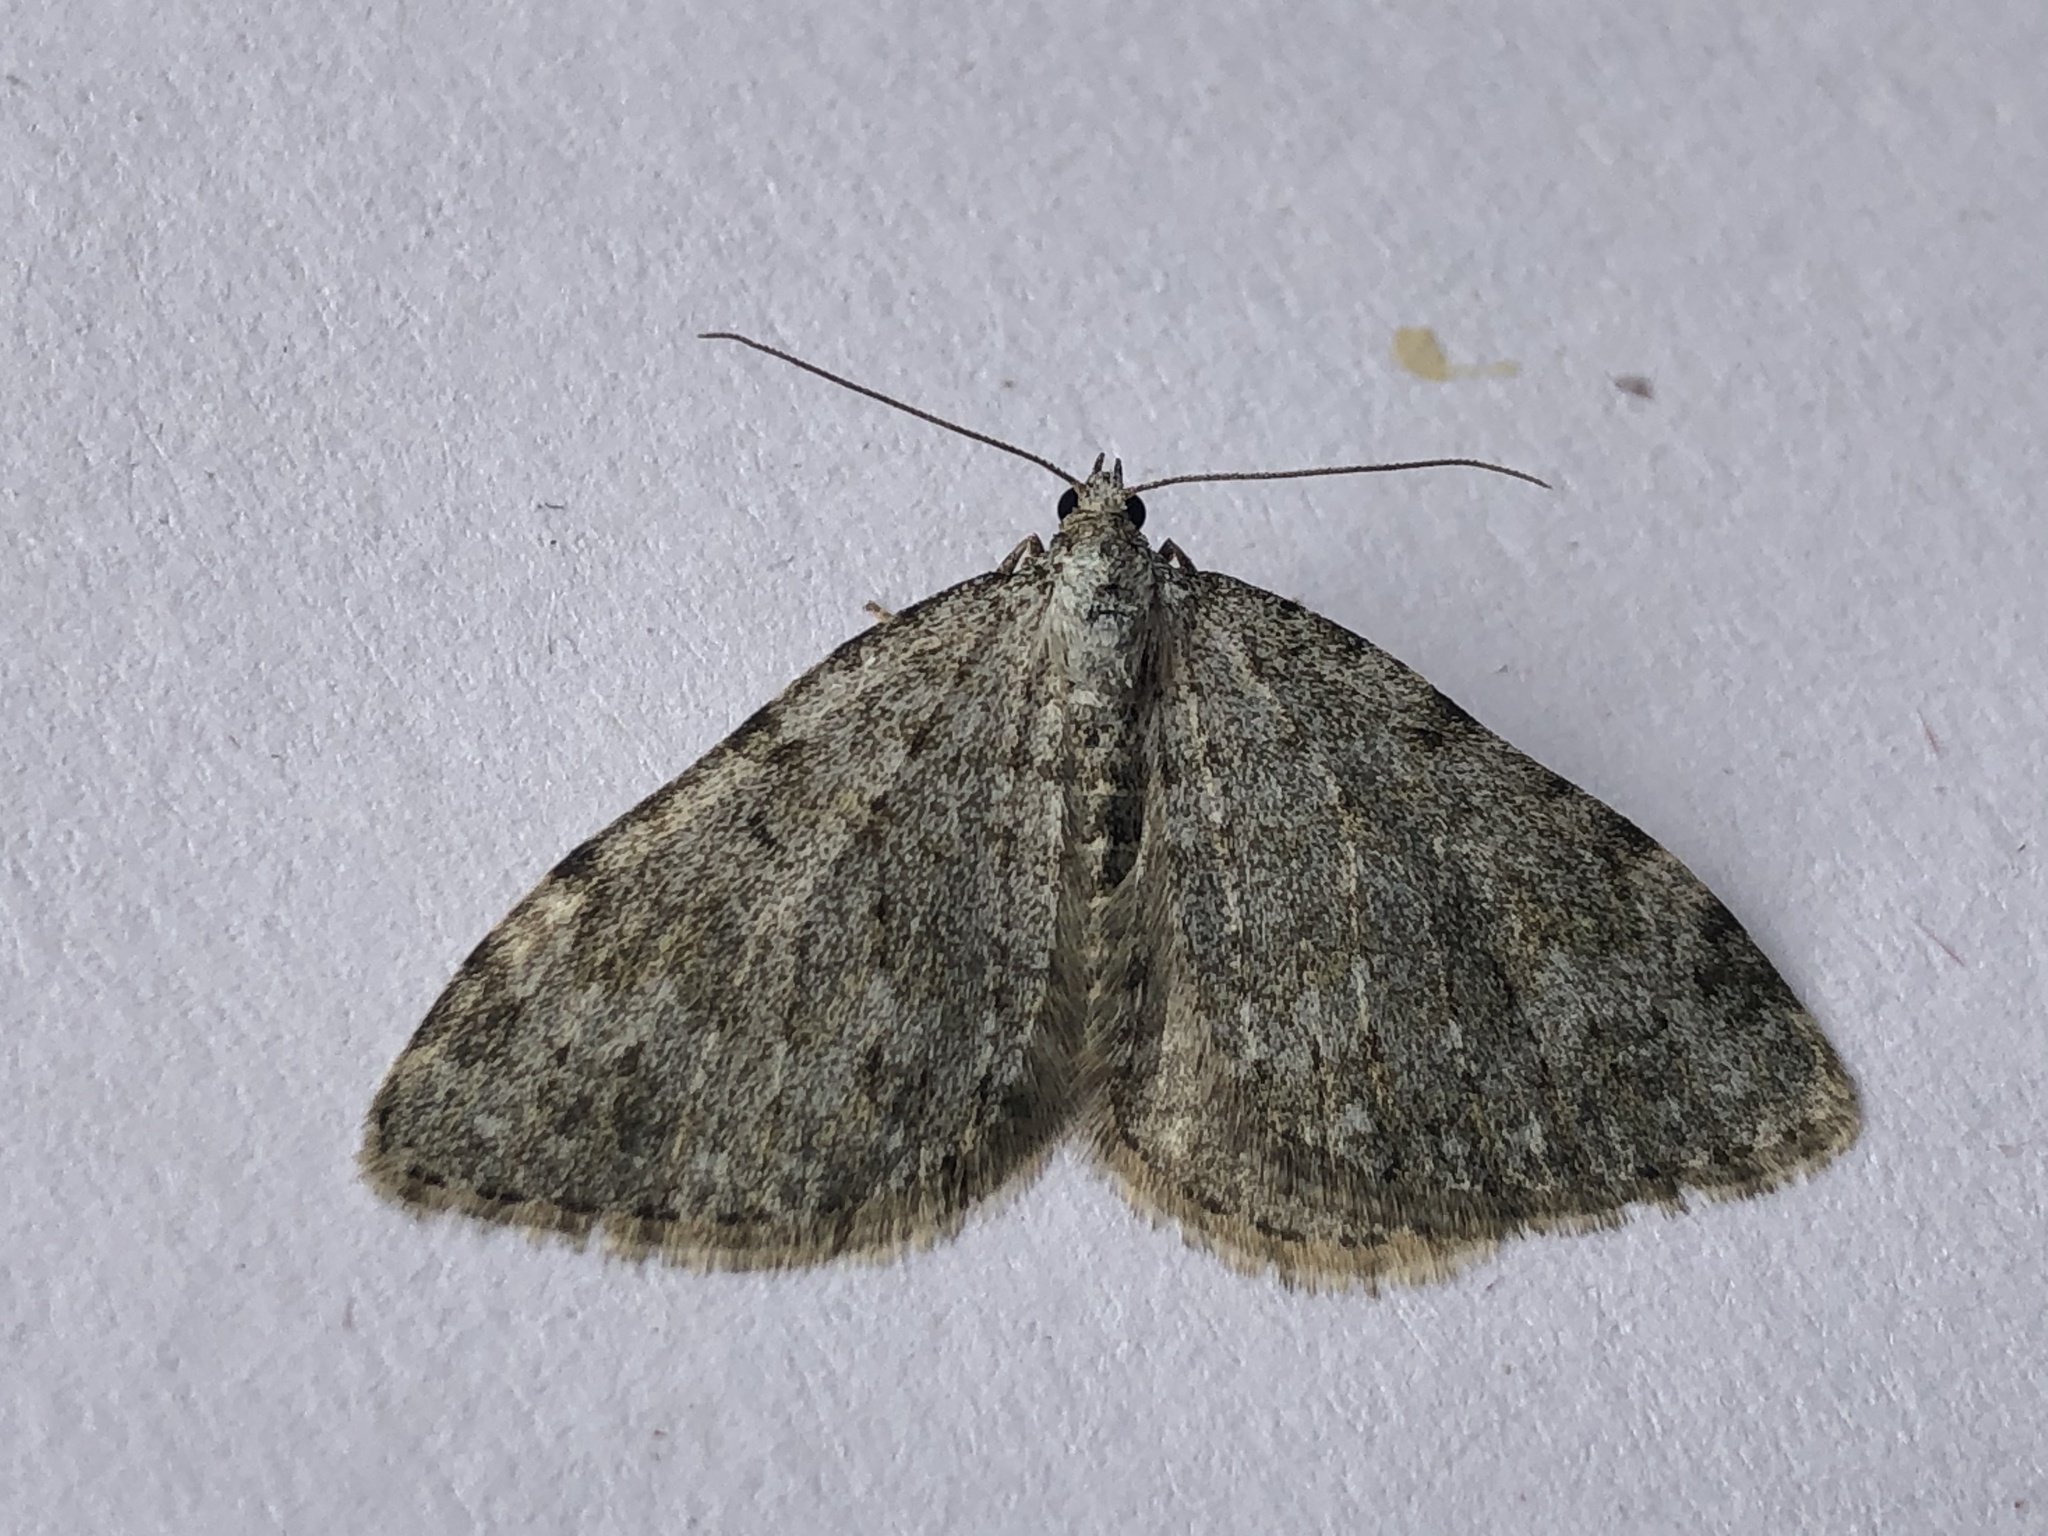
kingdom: Animalia
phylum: Arthropoda
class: Insecta
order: Lepidoptera
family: Geometridae
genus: Nebula
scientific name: Nebula salicata
